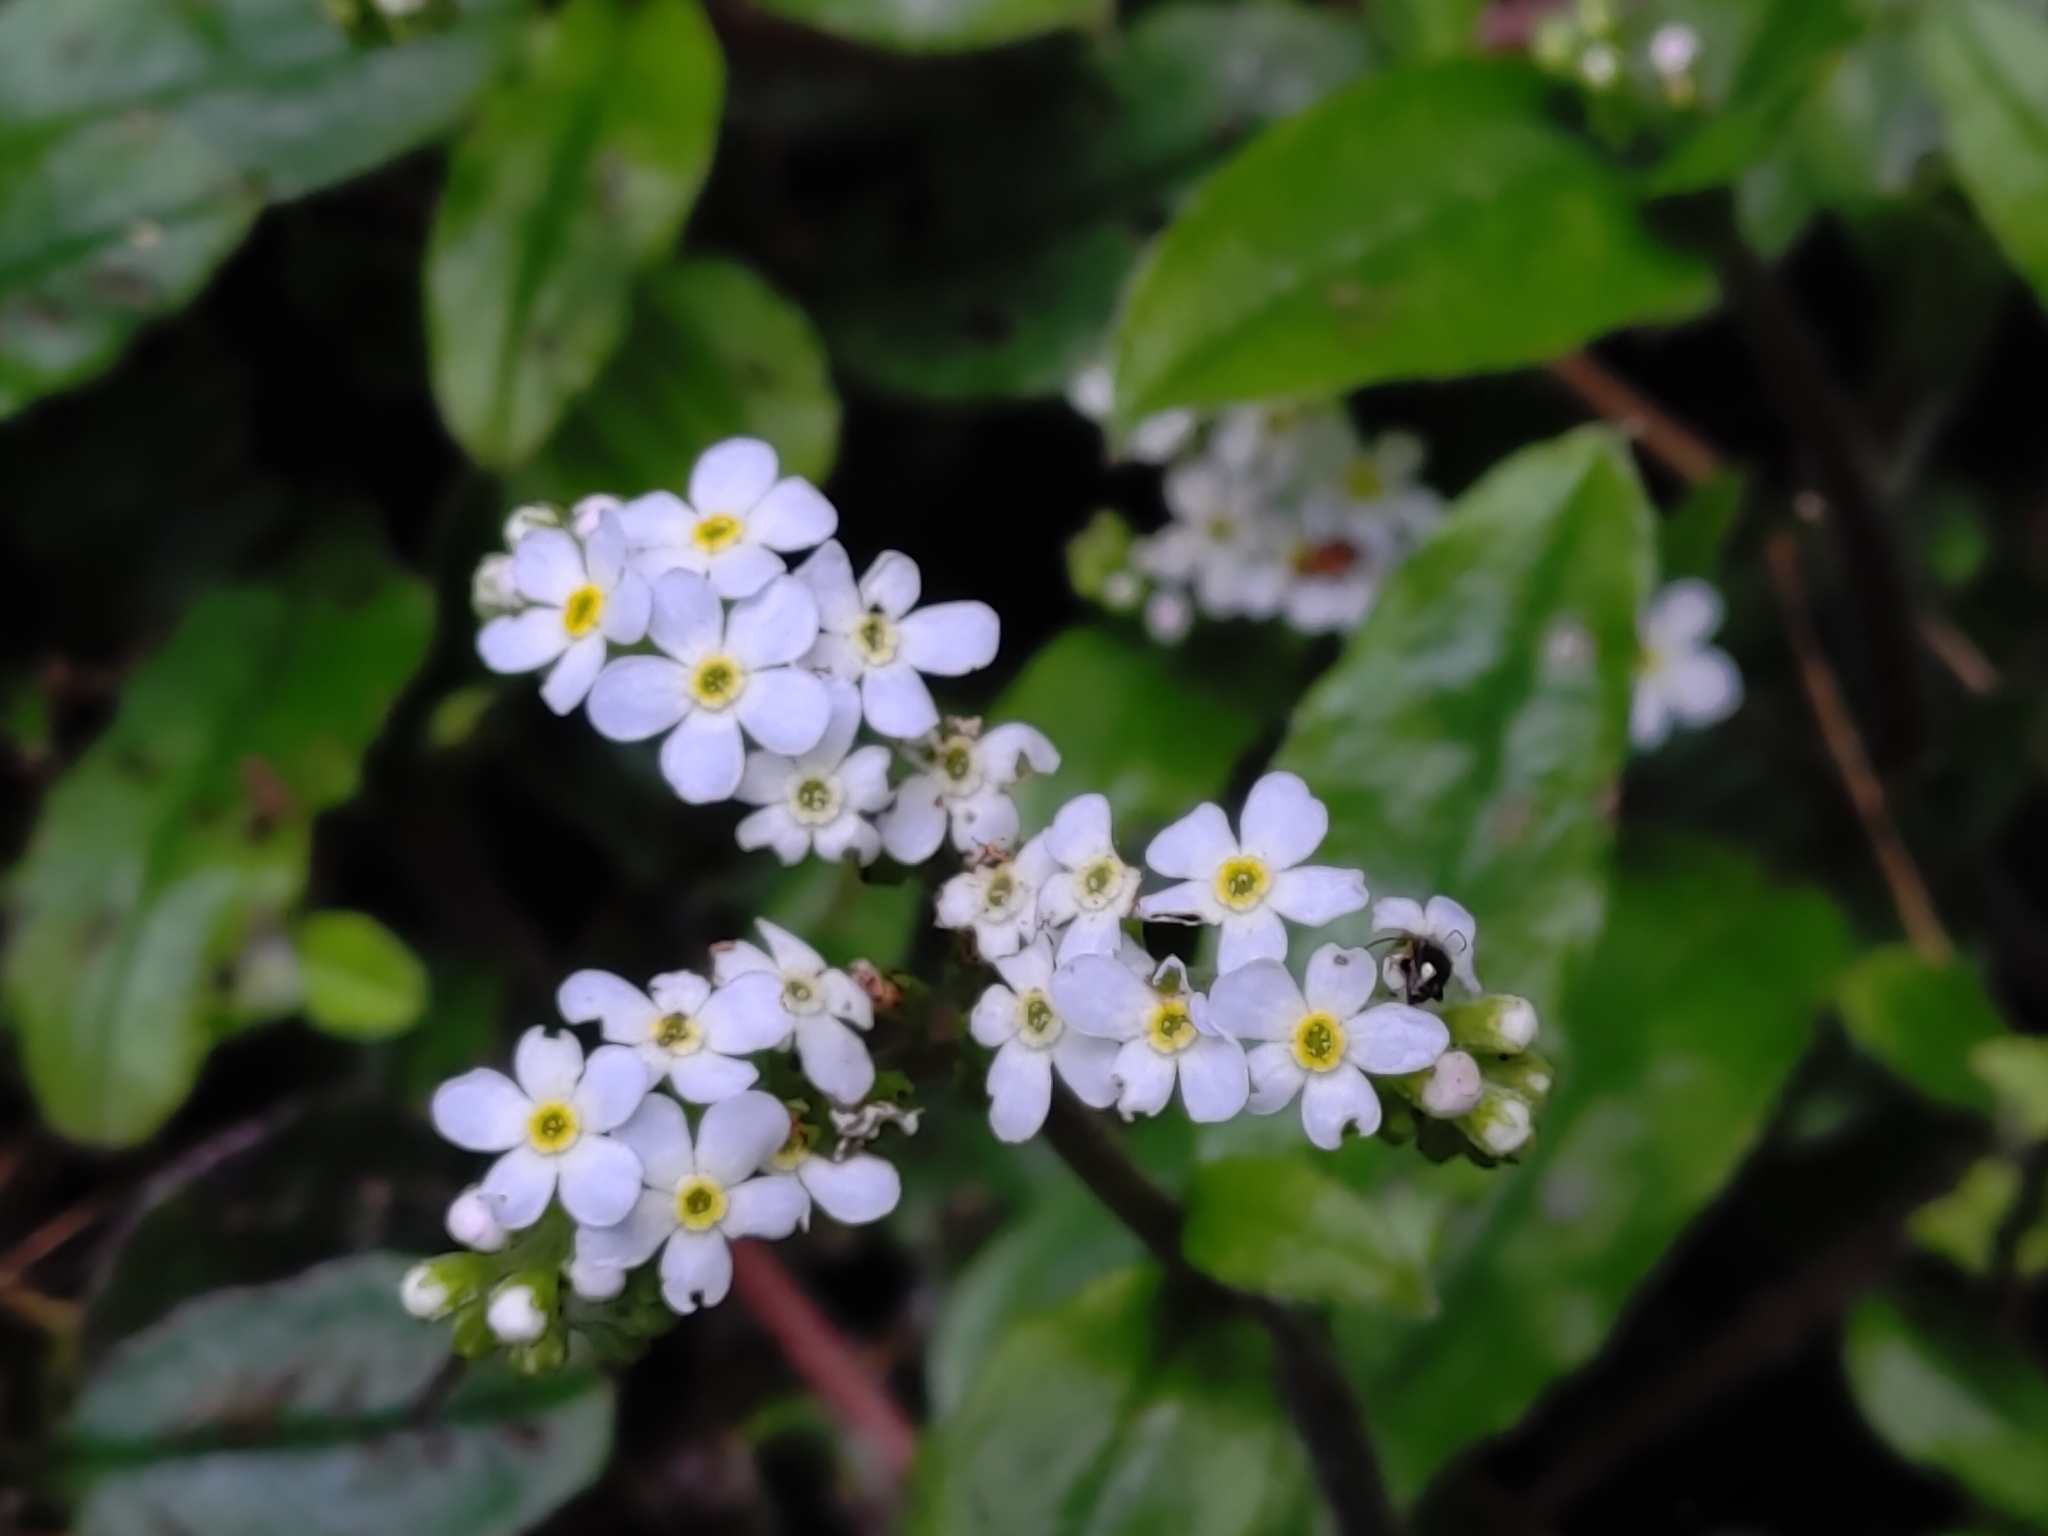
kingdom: Plantae
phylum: Tracheophyta
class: Magnoliopsida
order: Boraginales
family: Boraginaceae
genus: Trigonotis
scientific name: Trigonotis formosana
